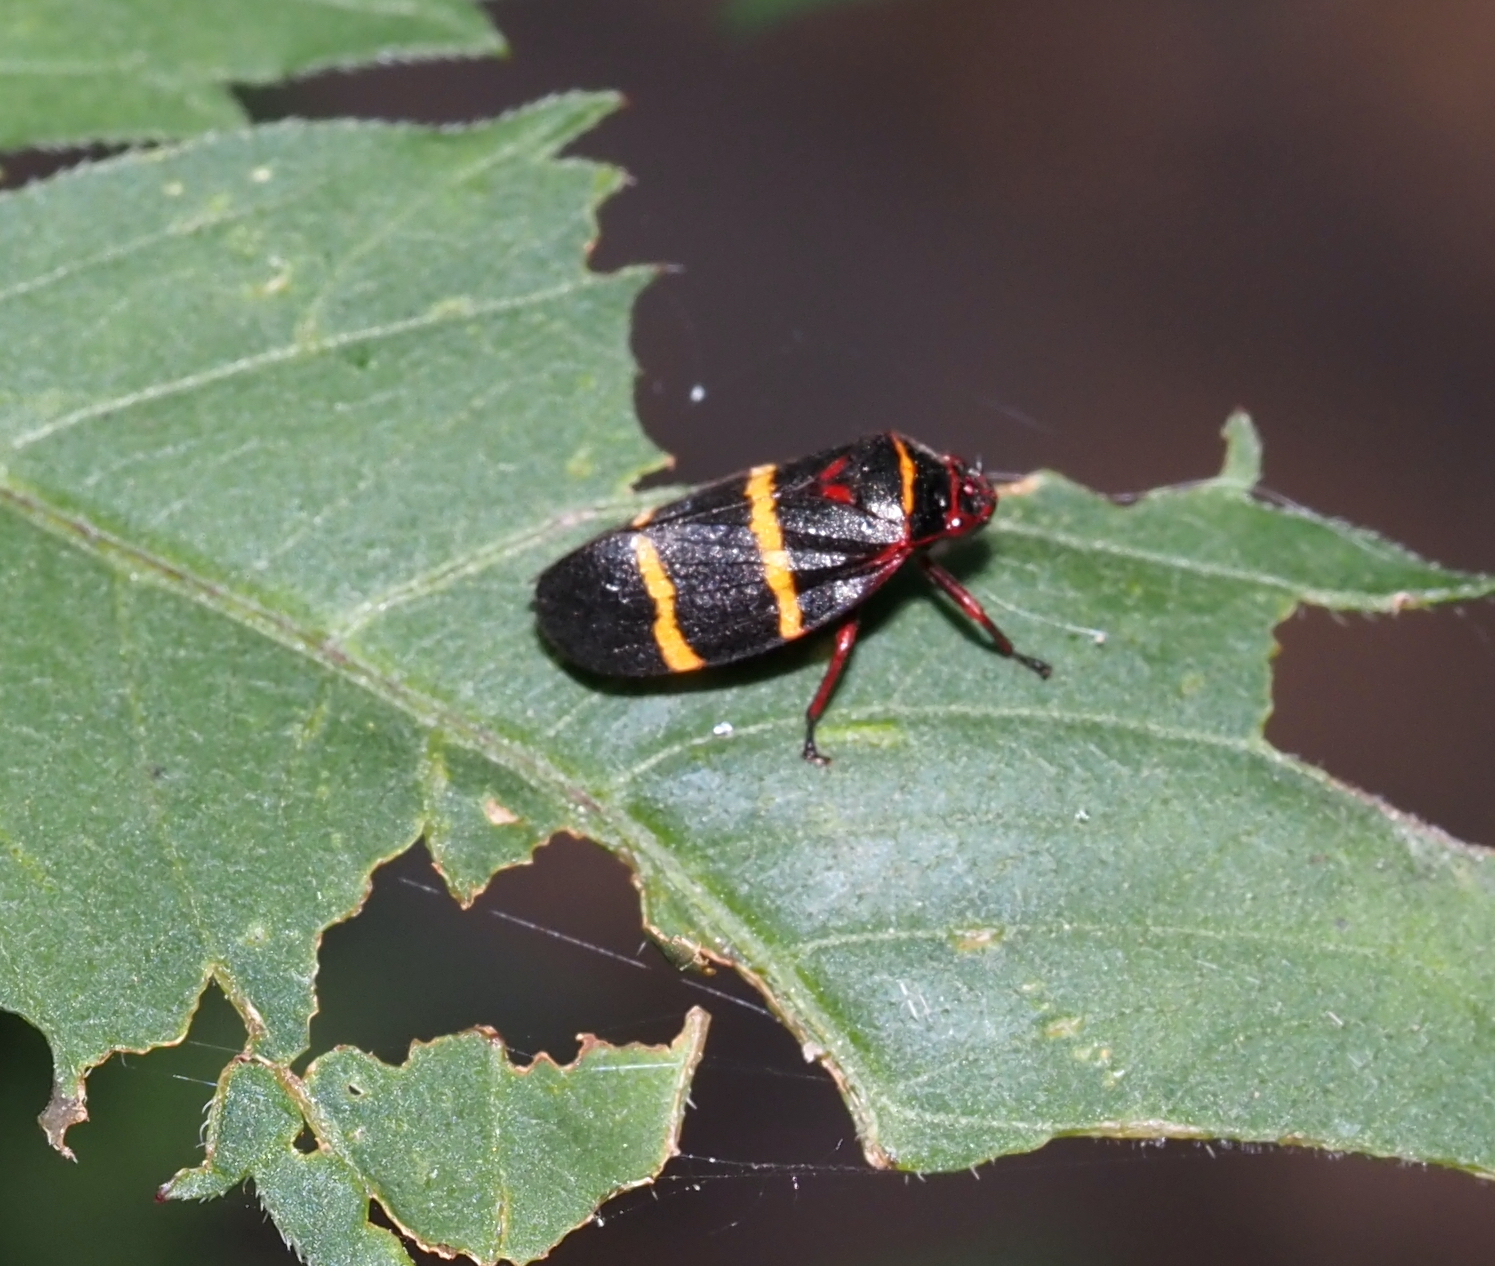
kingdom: Animalia
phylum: Arthropoda
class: Insecta
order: Hemiptera
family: Cercopidae
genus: Prosapia
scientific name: Prosapia bicincta
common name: Twolined spittlebug
